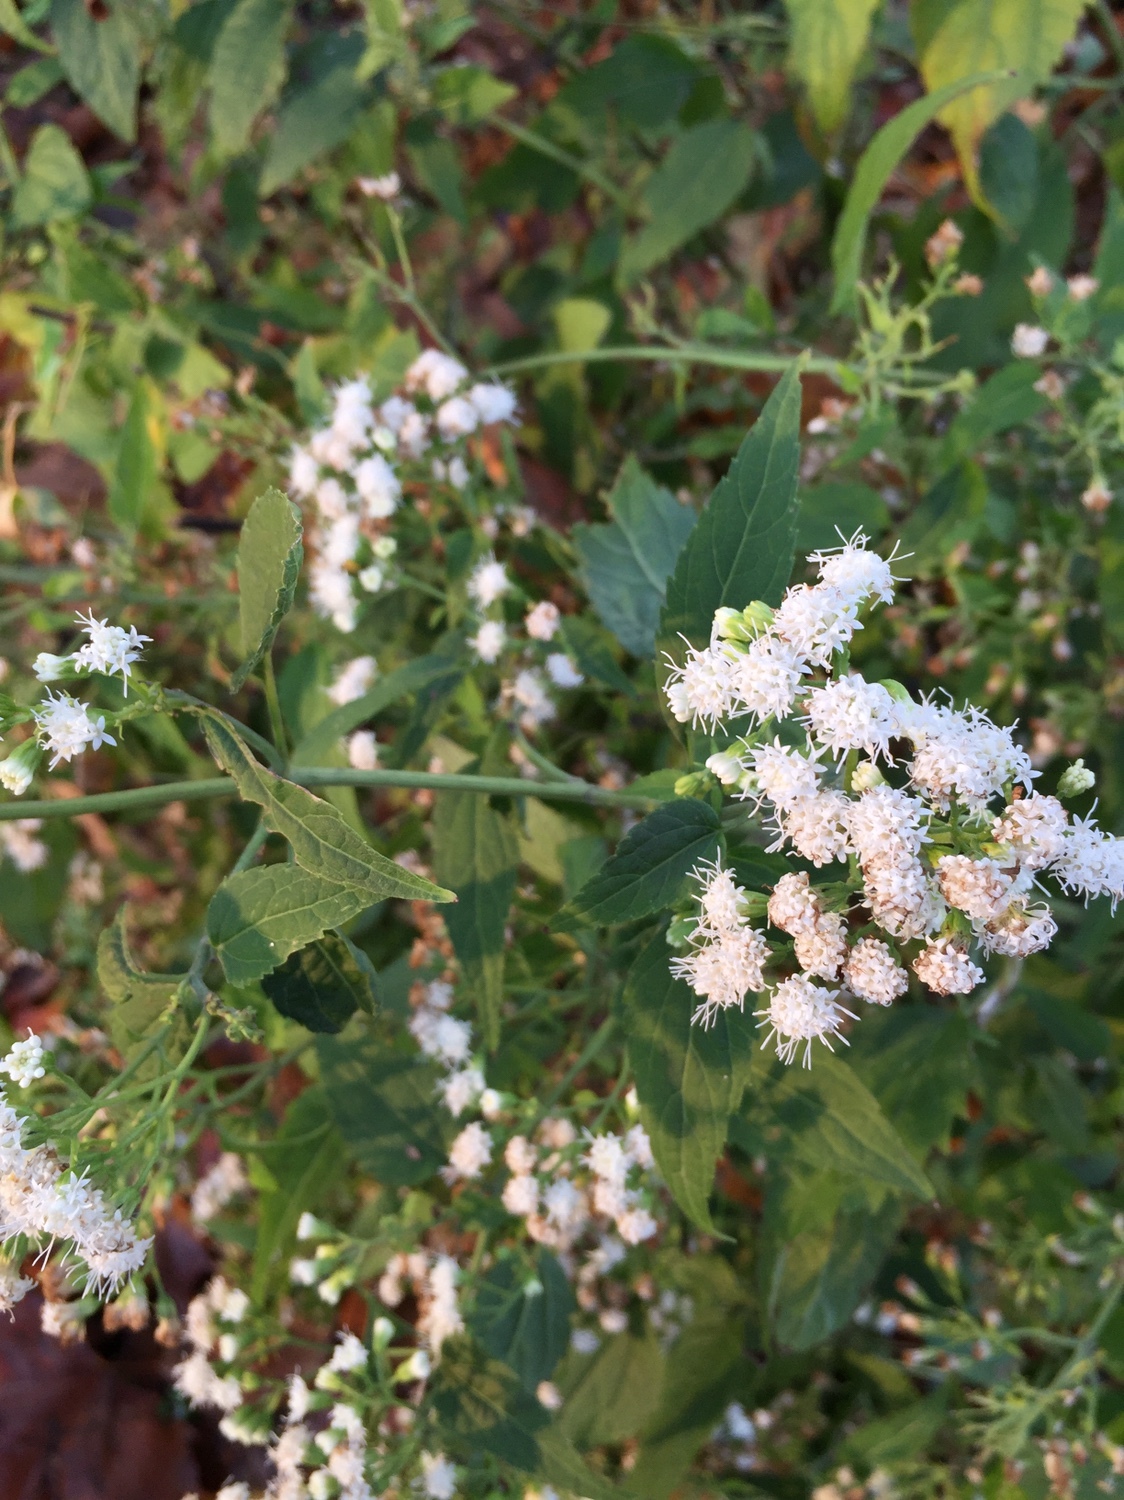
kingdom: Plantae
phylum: Tracheophyta
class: Magnoliopsida
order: Asterales
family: Asteraceae
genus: Ageratina
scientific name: Ageratina altissima
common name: White snakeroot
